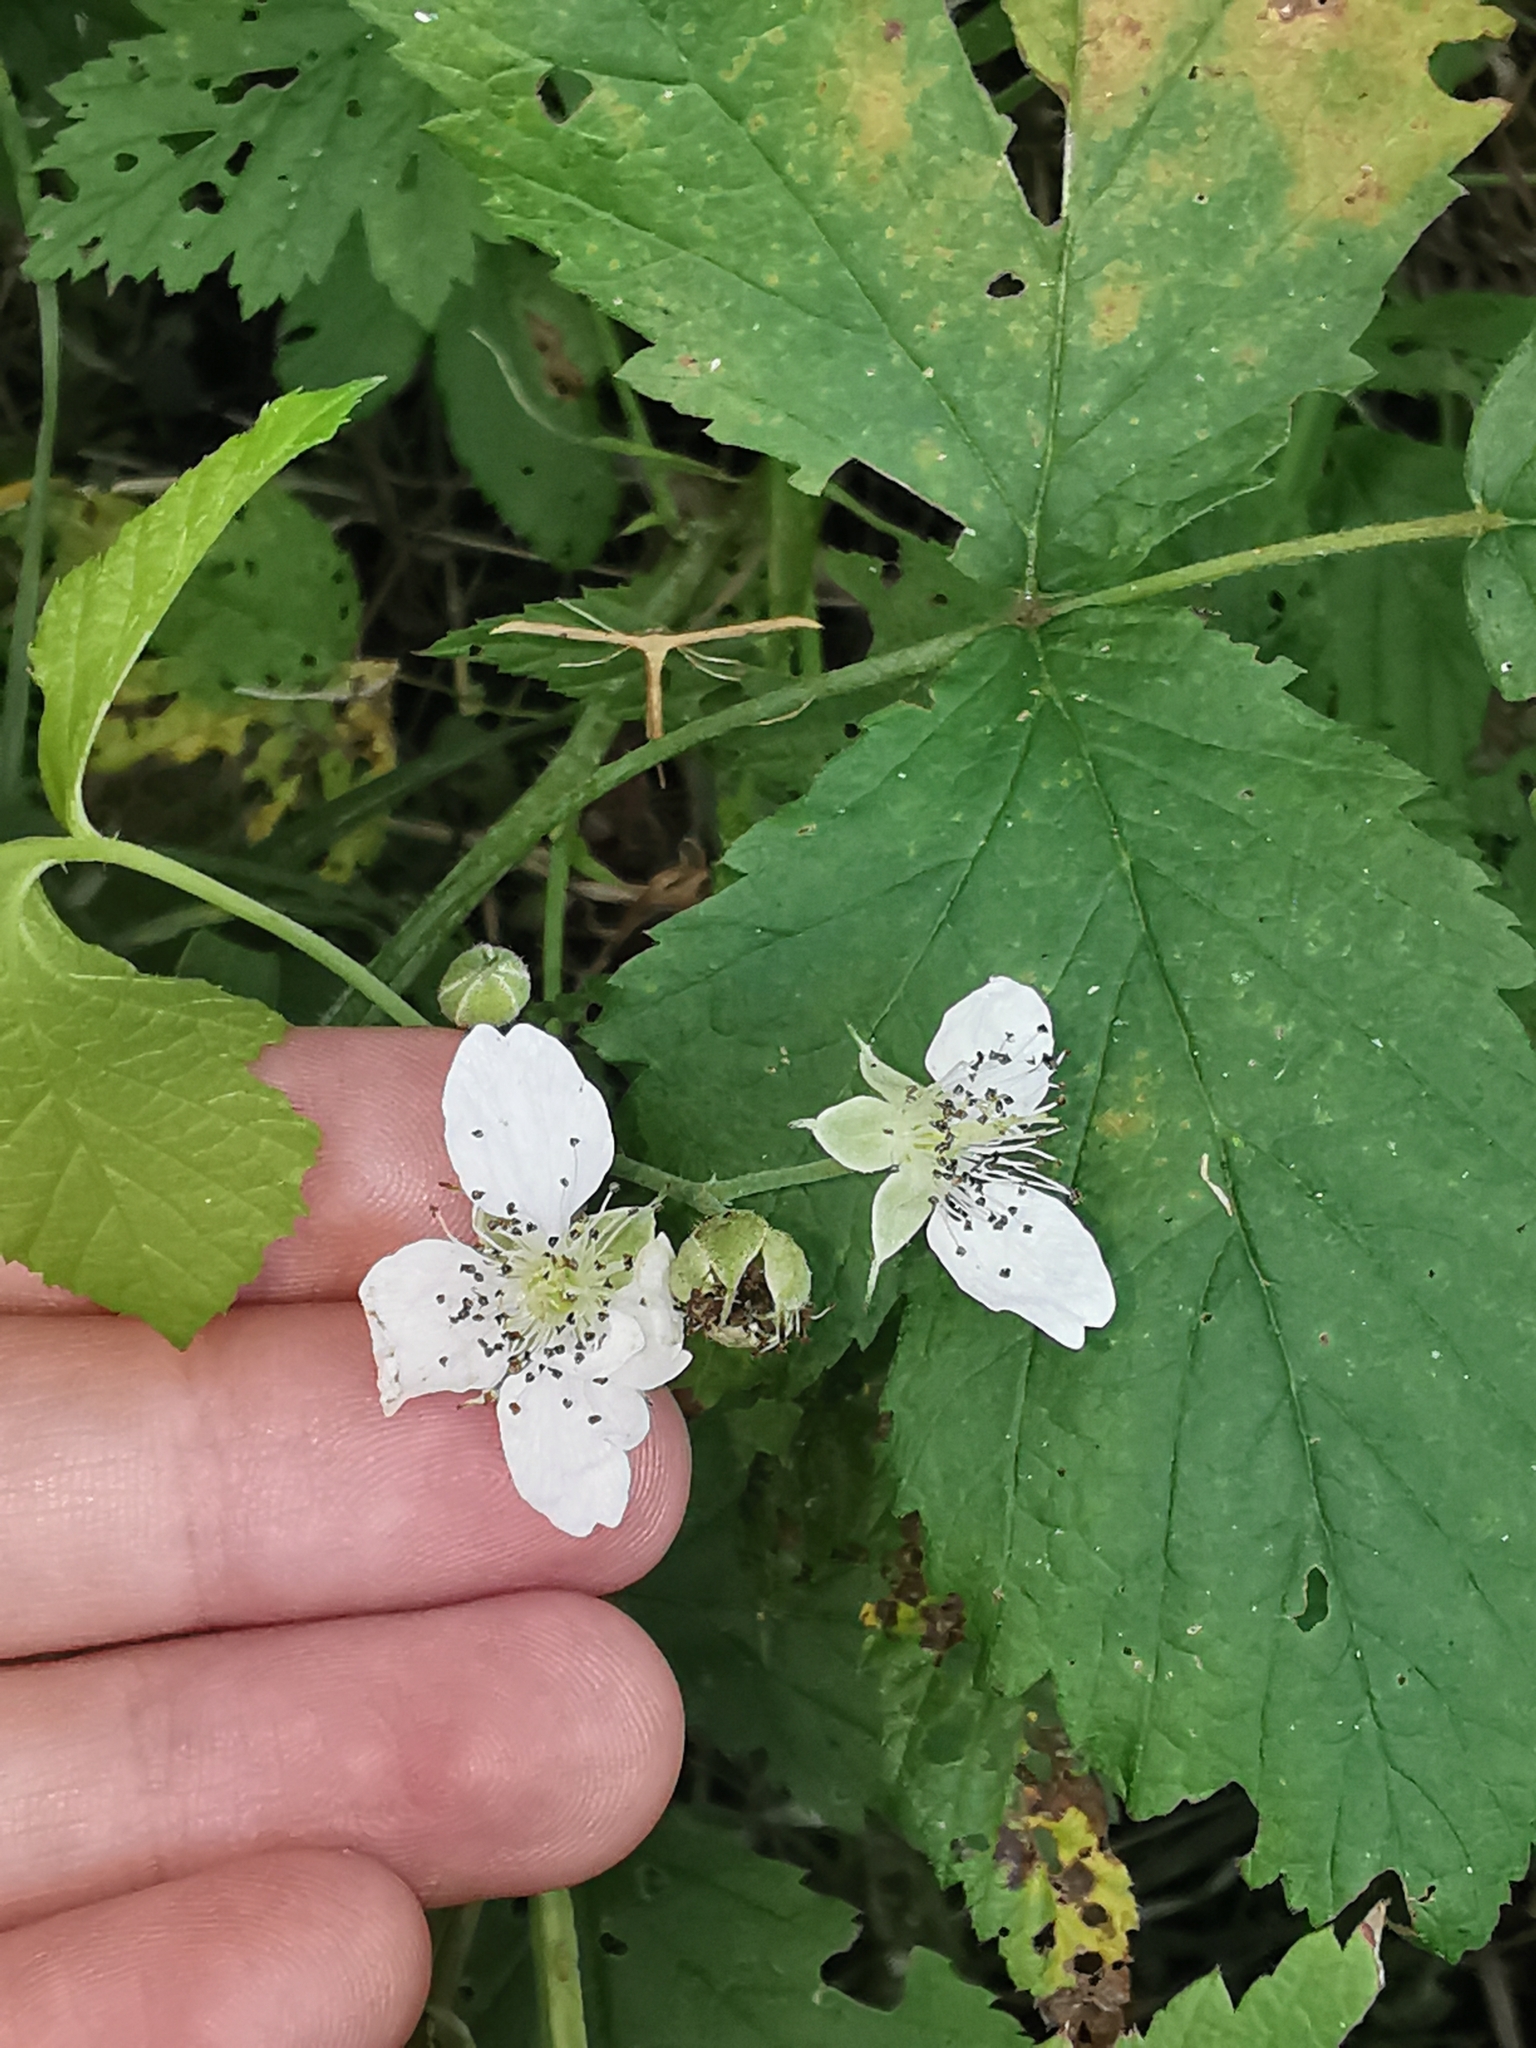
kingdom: Plantae
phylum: Tracheophyta
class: Magnoliopsida
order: Rosales
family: Rosaceae
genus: Rubus
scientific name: Rubus caesius
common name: Dewberry
